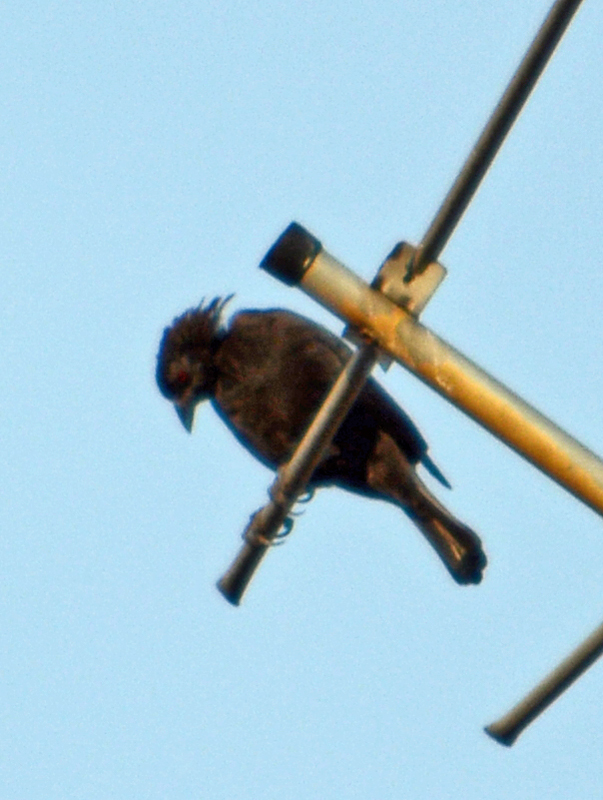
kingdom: Animalia
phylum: Chordata
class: Aves
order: Passeriformes
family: Icteridae
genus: Molothrus
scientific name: Molothrus aeneus
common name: Bronzed cowbird
